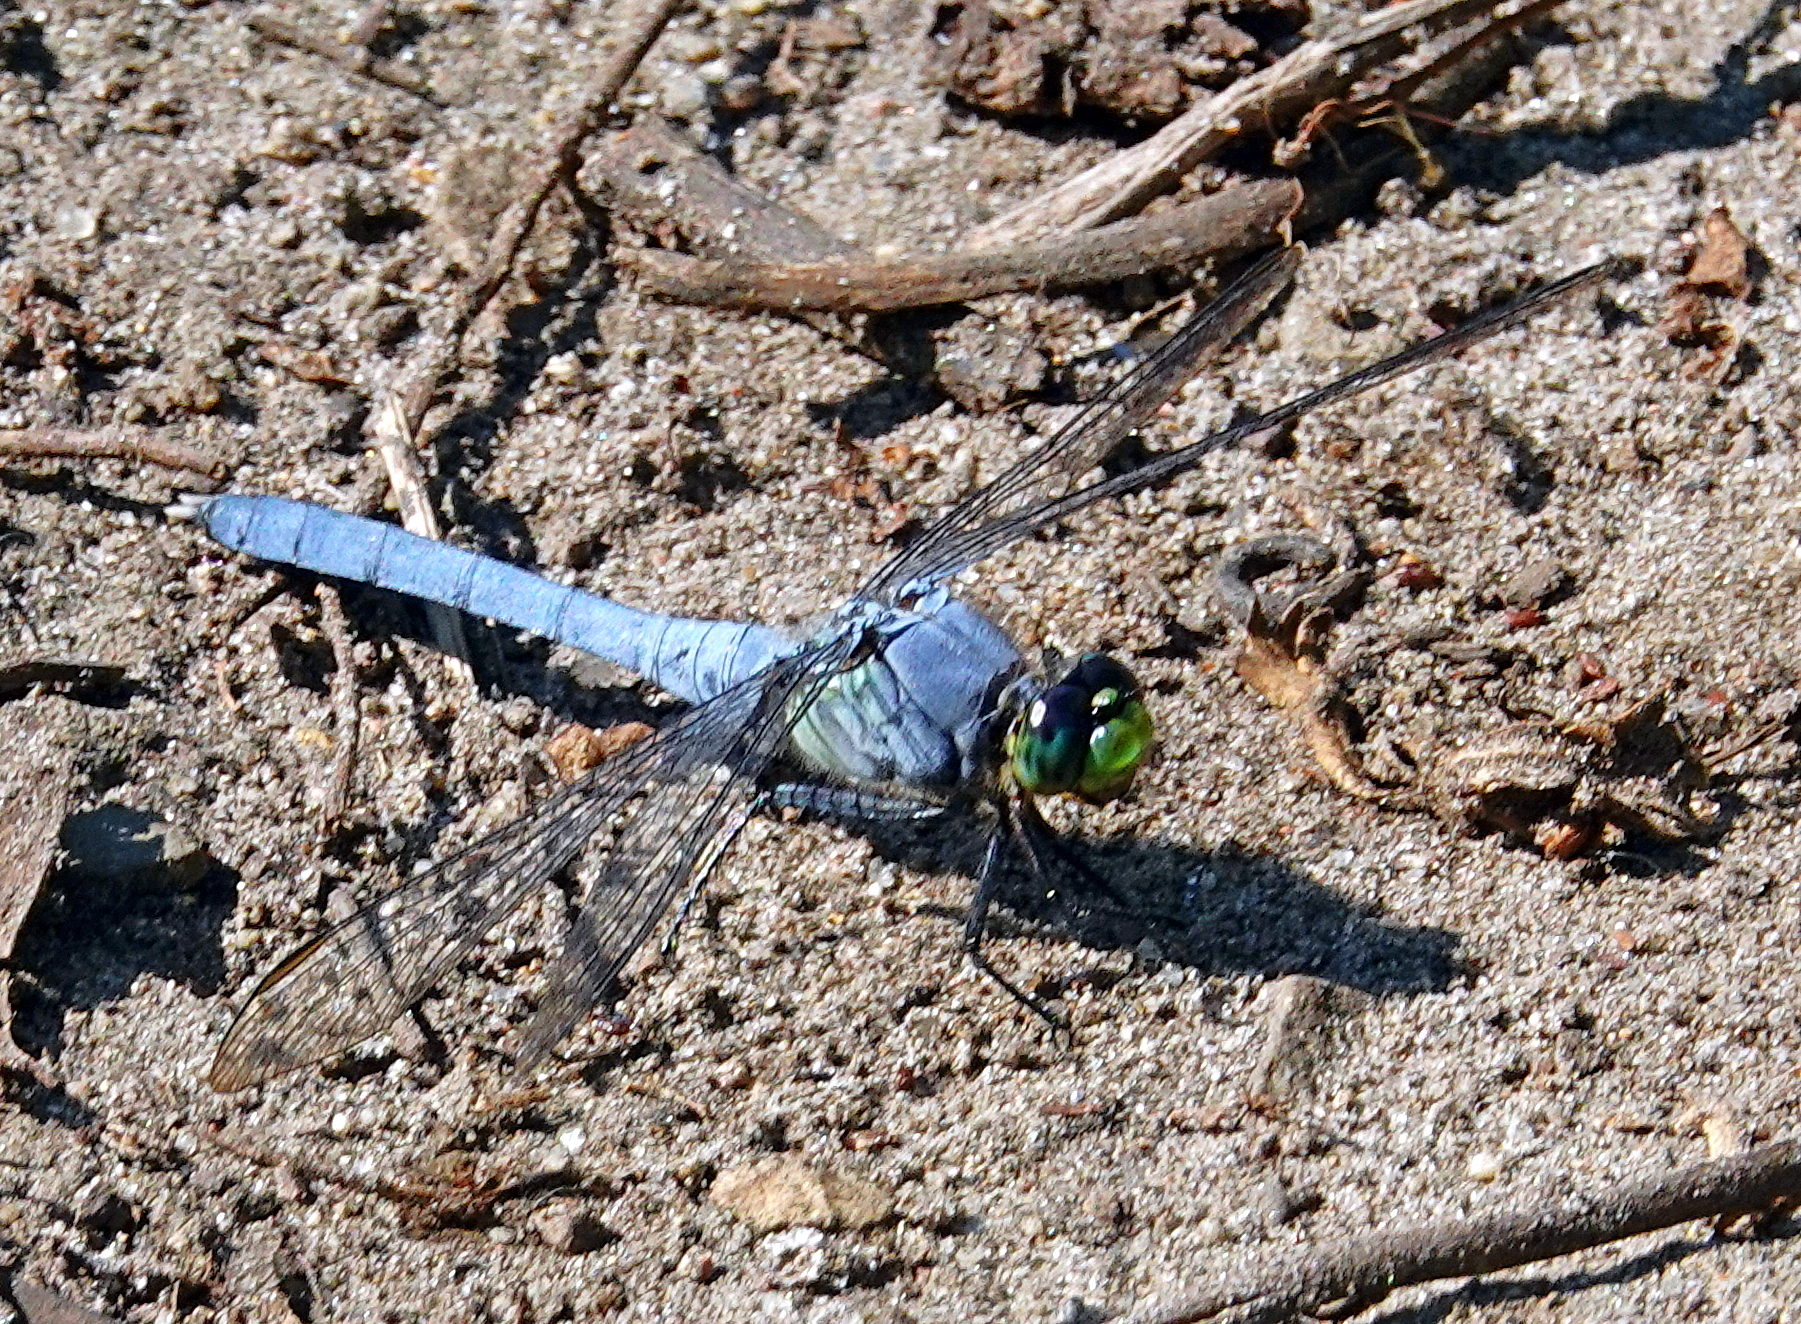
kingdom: Animalia
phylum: Arthropoda
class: Insecta
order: Odonata
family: Libellulidae
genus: Erythemis
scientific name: Erythemis simplicicollis
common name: Eastern pondhawk
